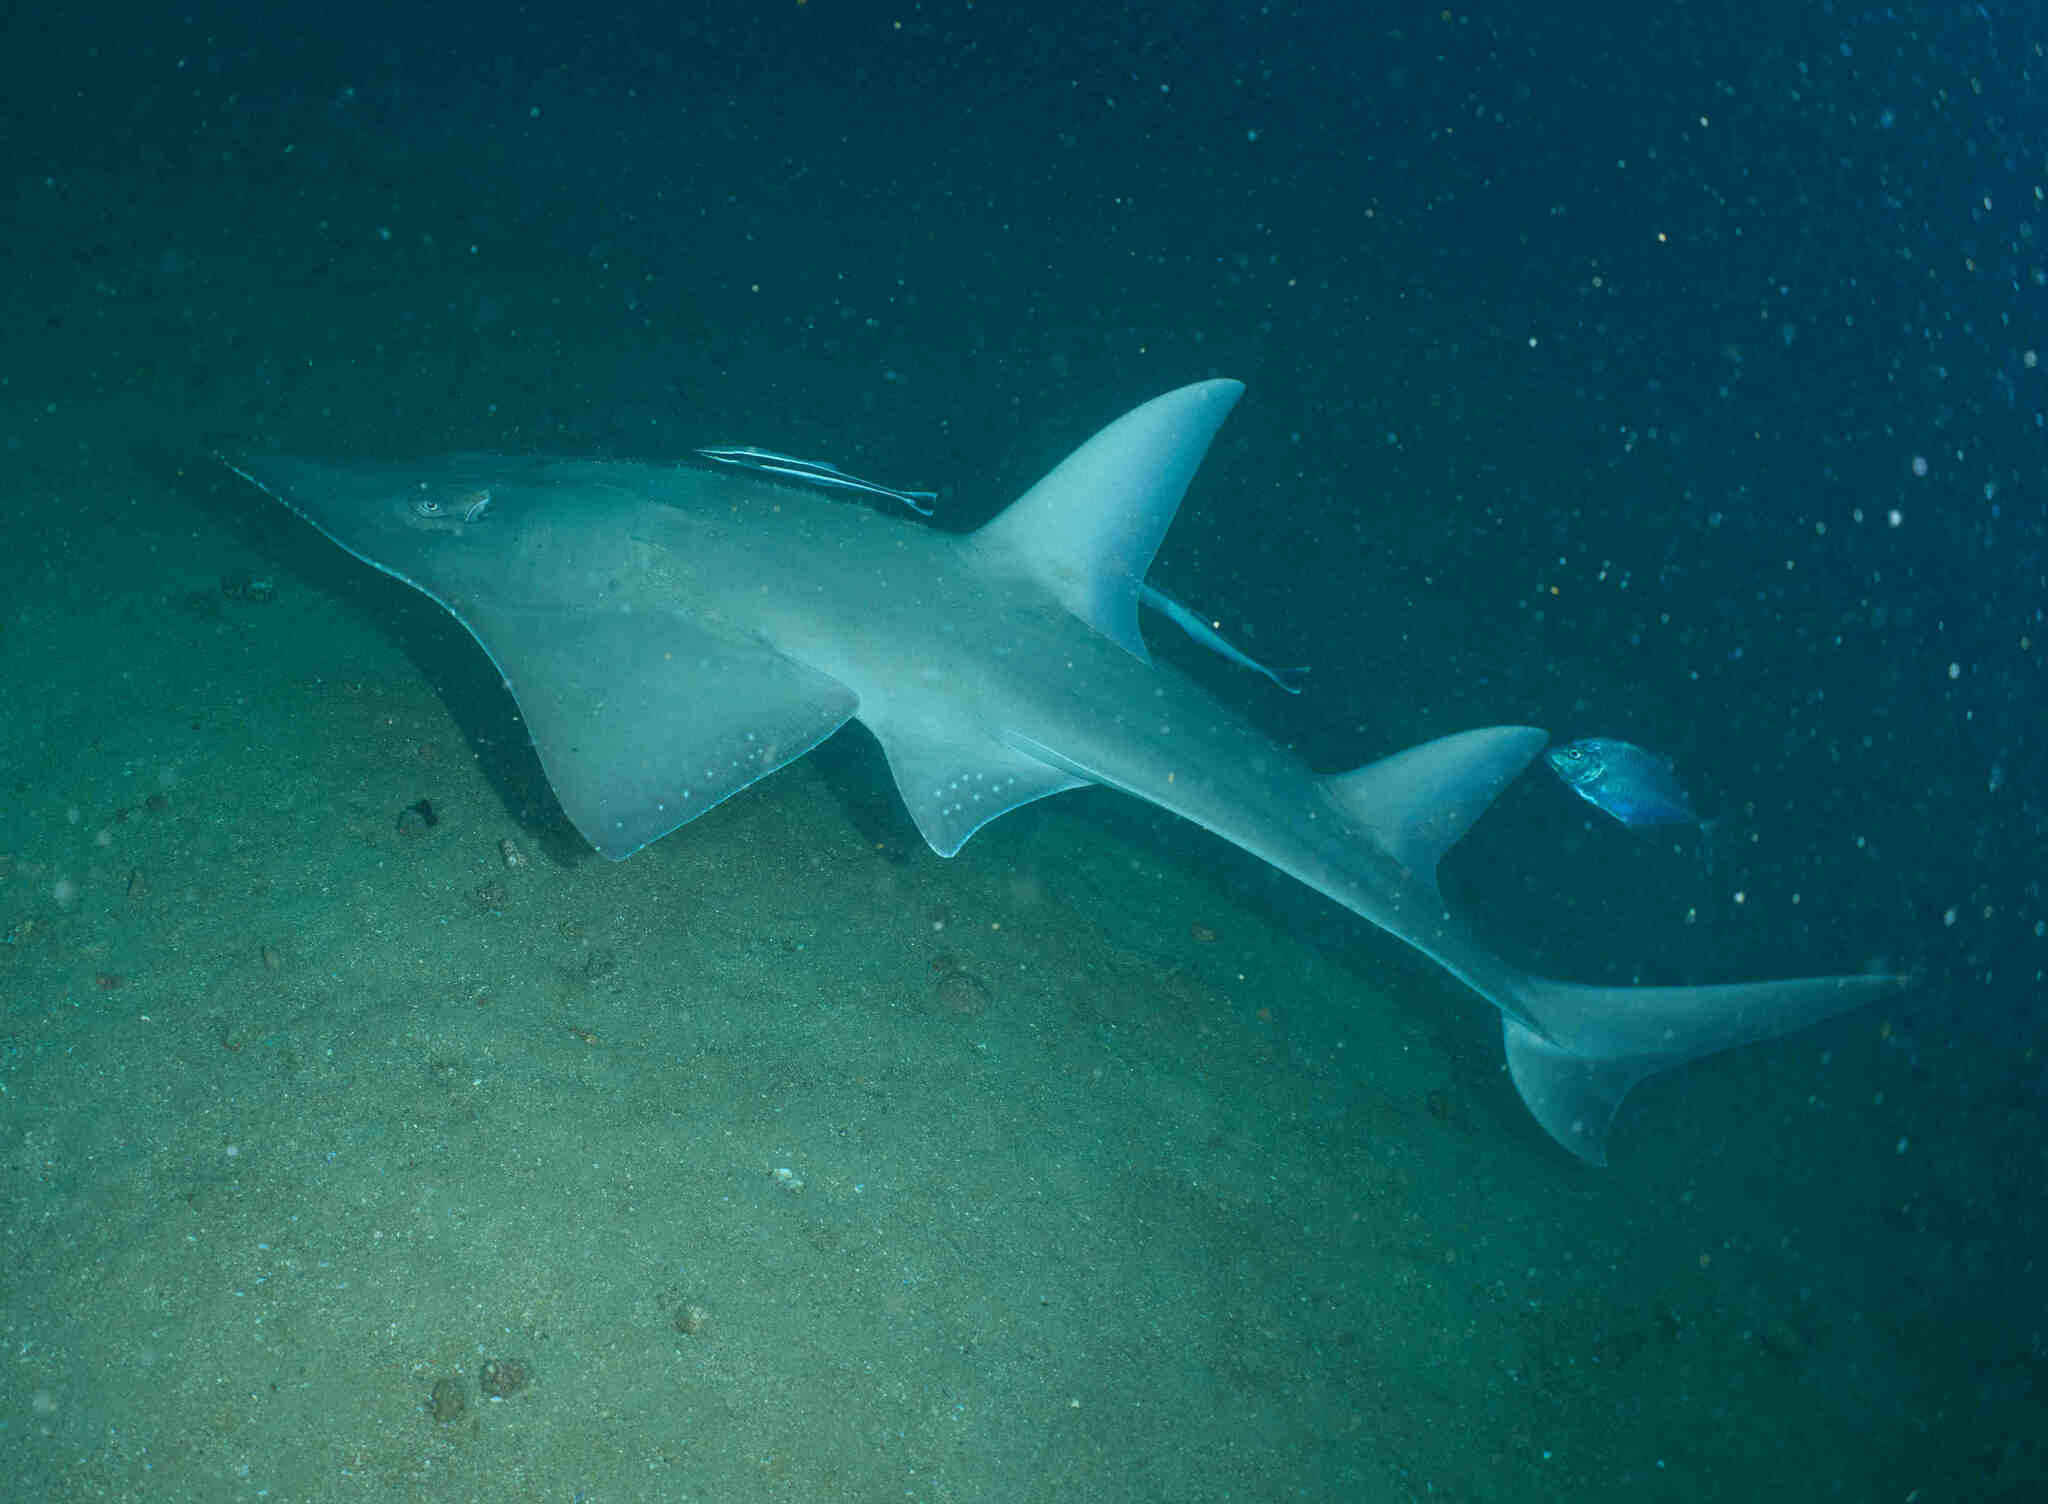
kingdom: Animalia
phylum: Chordata
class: Elasmobranchii
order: Rhinopristiformes
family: Rhinidae
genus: Rhynchobatus
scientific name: Rhynchobatus australiae
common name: Whitespotted wedgefish
